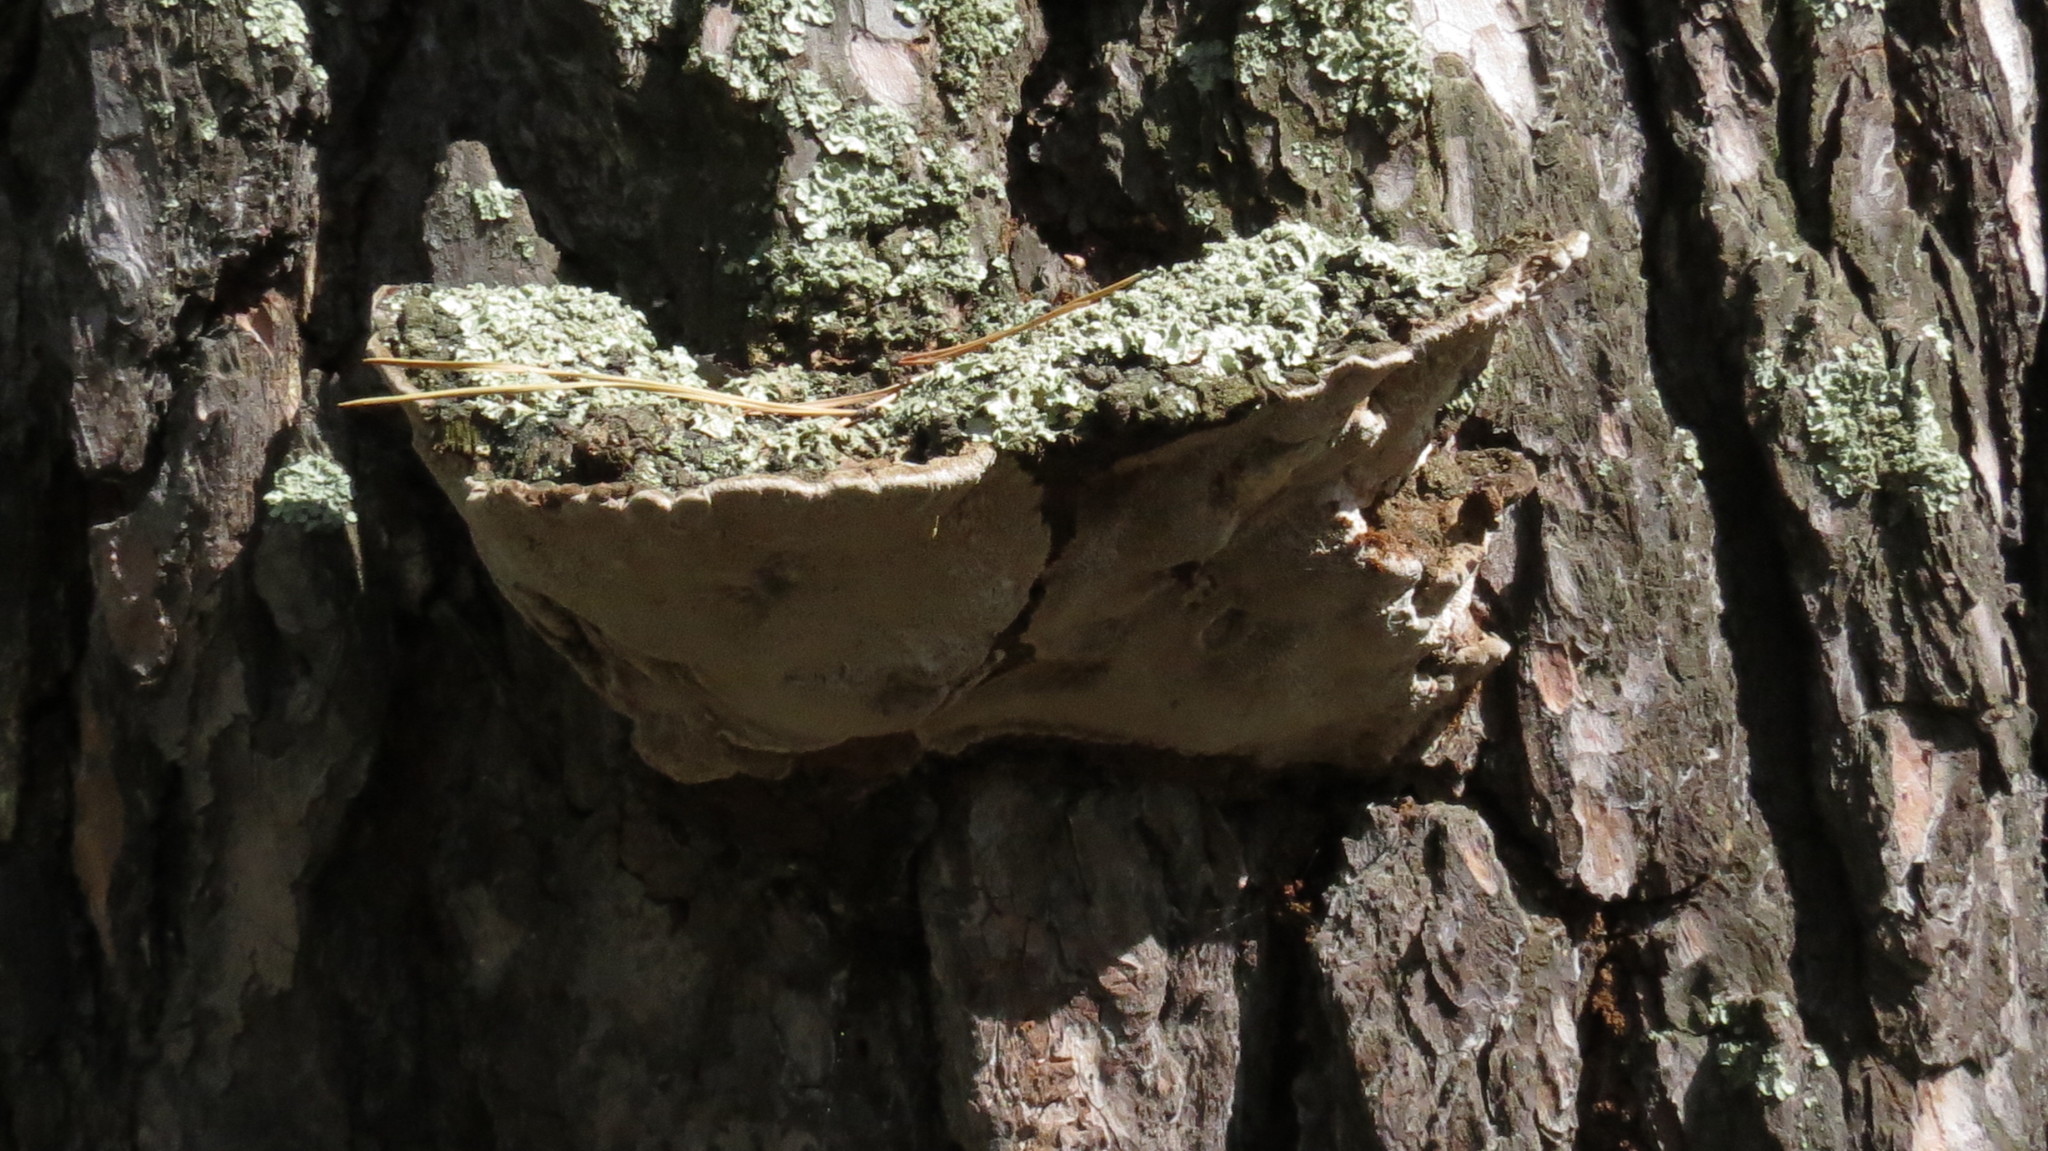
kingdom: Fungi
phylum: Basidiomycota
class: Agaricomycetes
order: Hymenochaetales
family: Hymenochaetaceae
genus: Porodaedalea
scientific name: Porodaedalea pini
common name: Pine bracket
